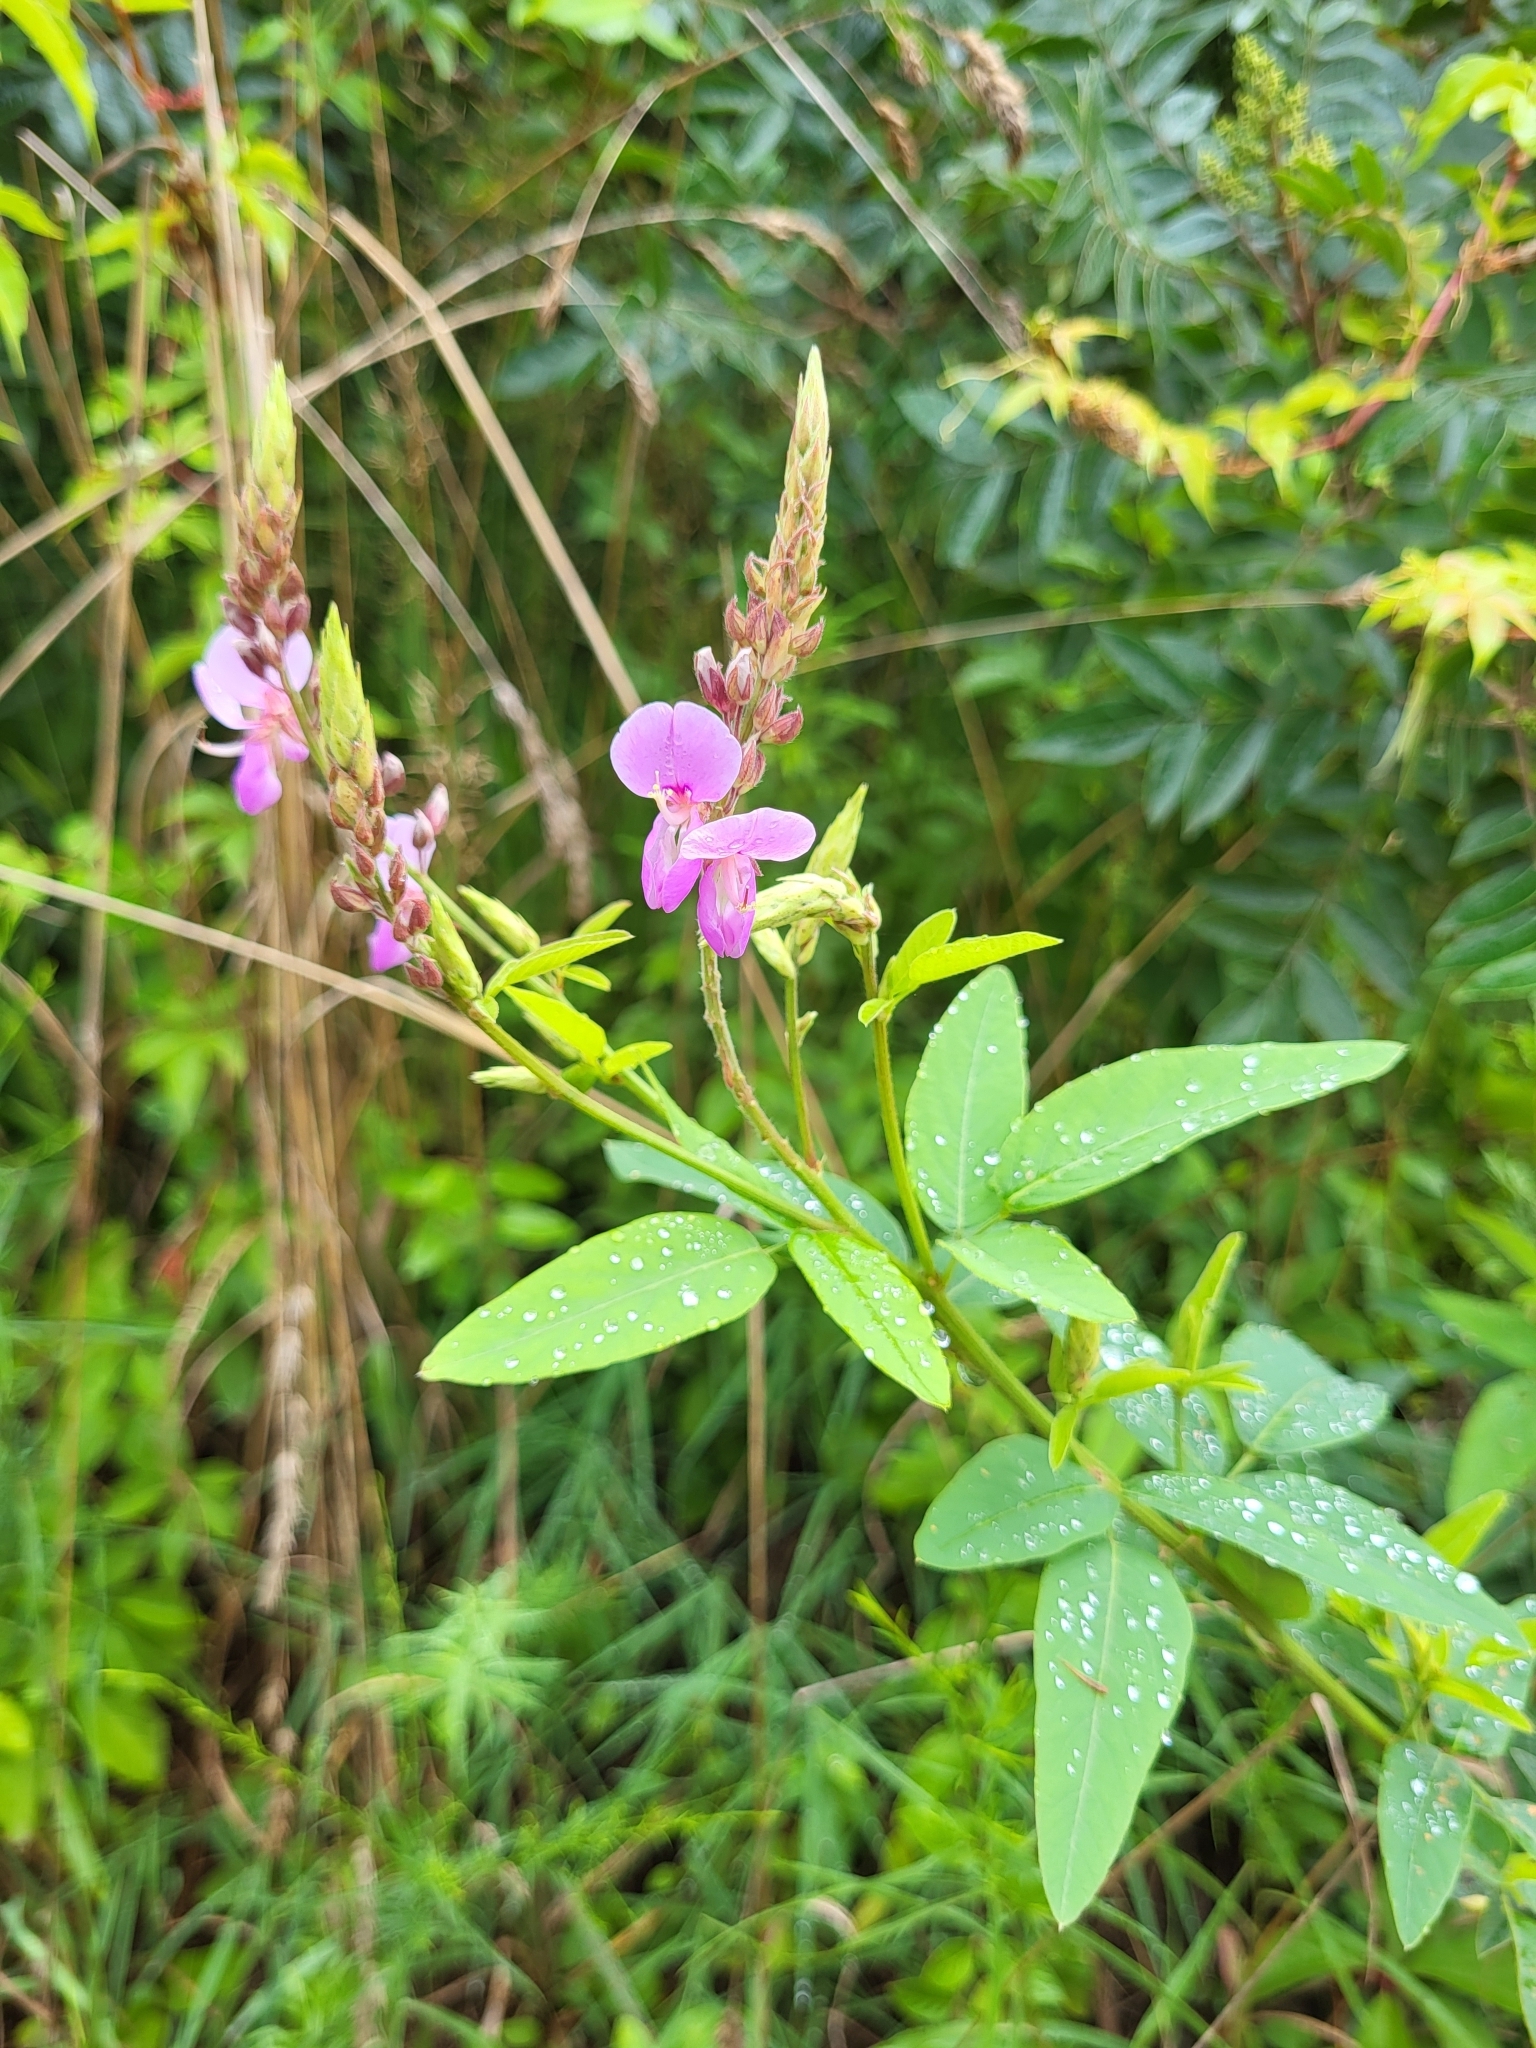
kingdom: Plantae
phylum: Tracheophyta
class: Magnoliopsida
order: Fabales
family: Fabaceae
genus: Desmodium
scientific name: Desmodium canadense
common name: Canada tick-trefoil
